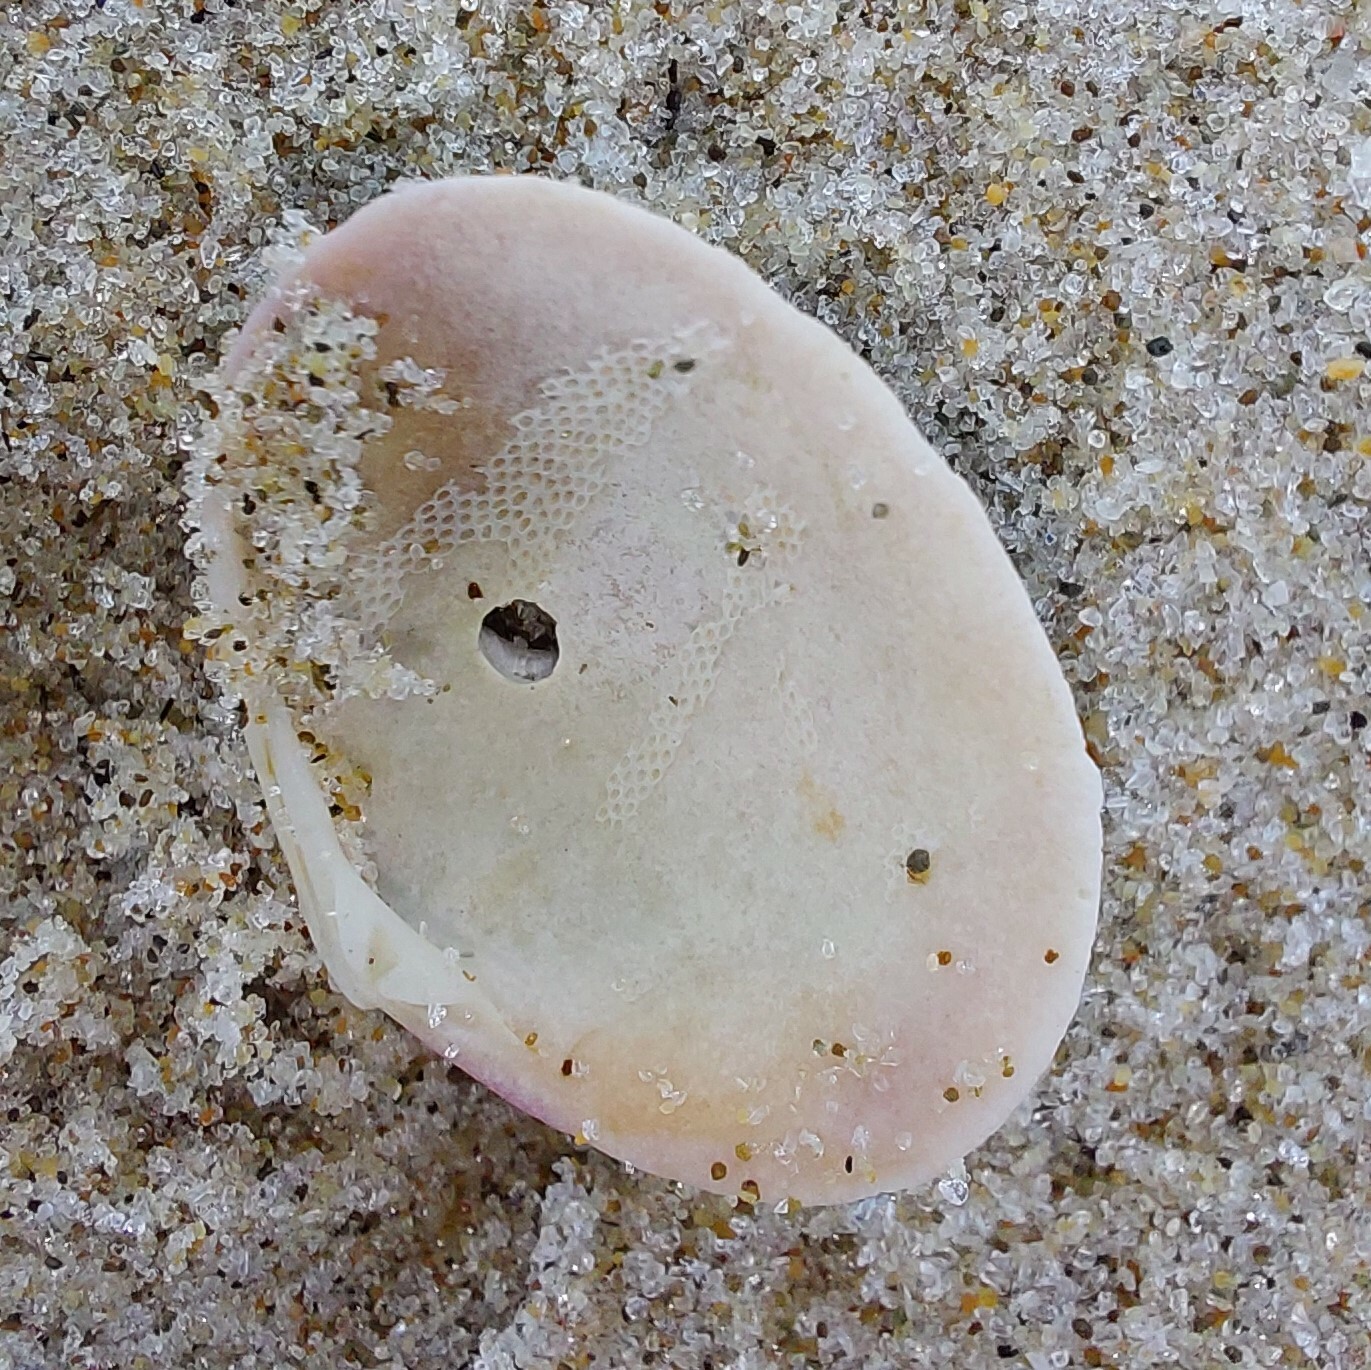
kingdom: Animalia
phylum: Mollusca
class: Bivalvia
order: Venerida
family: Veneridae
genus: Tawera
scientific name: Tawera spissa
